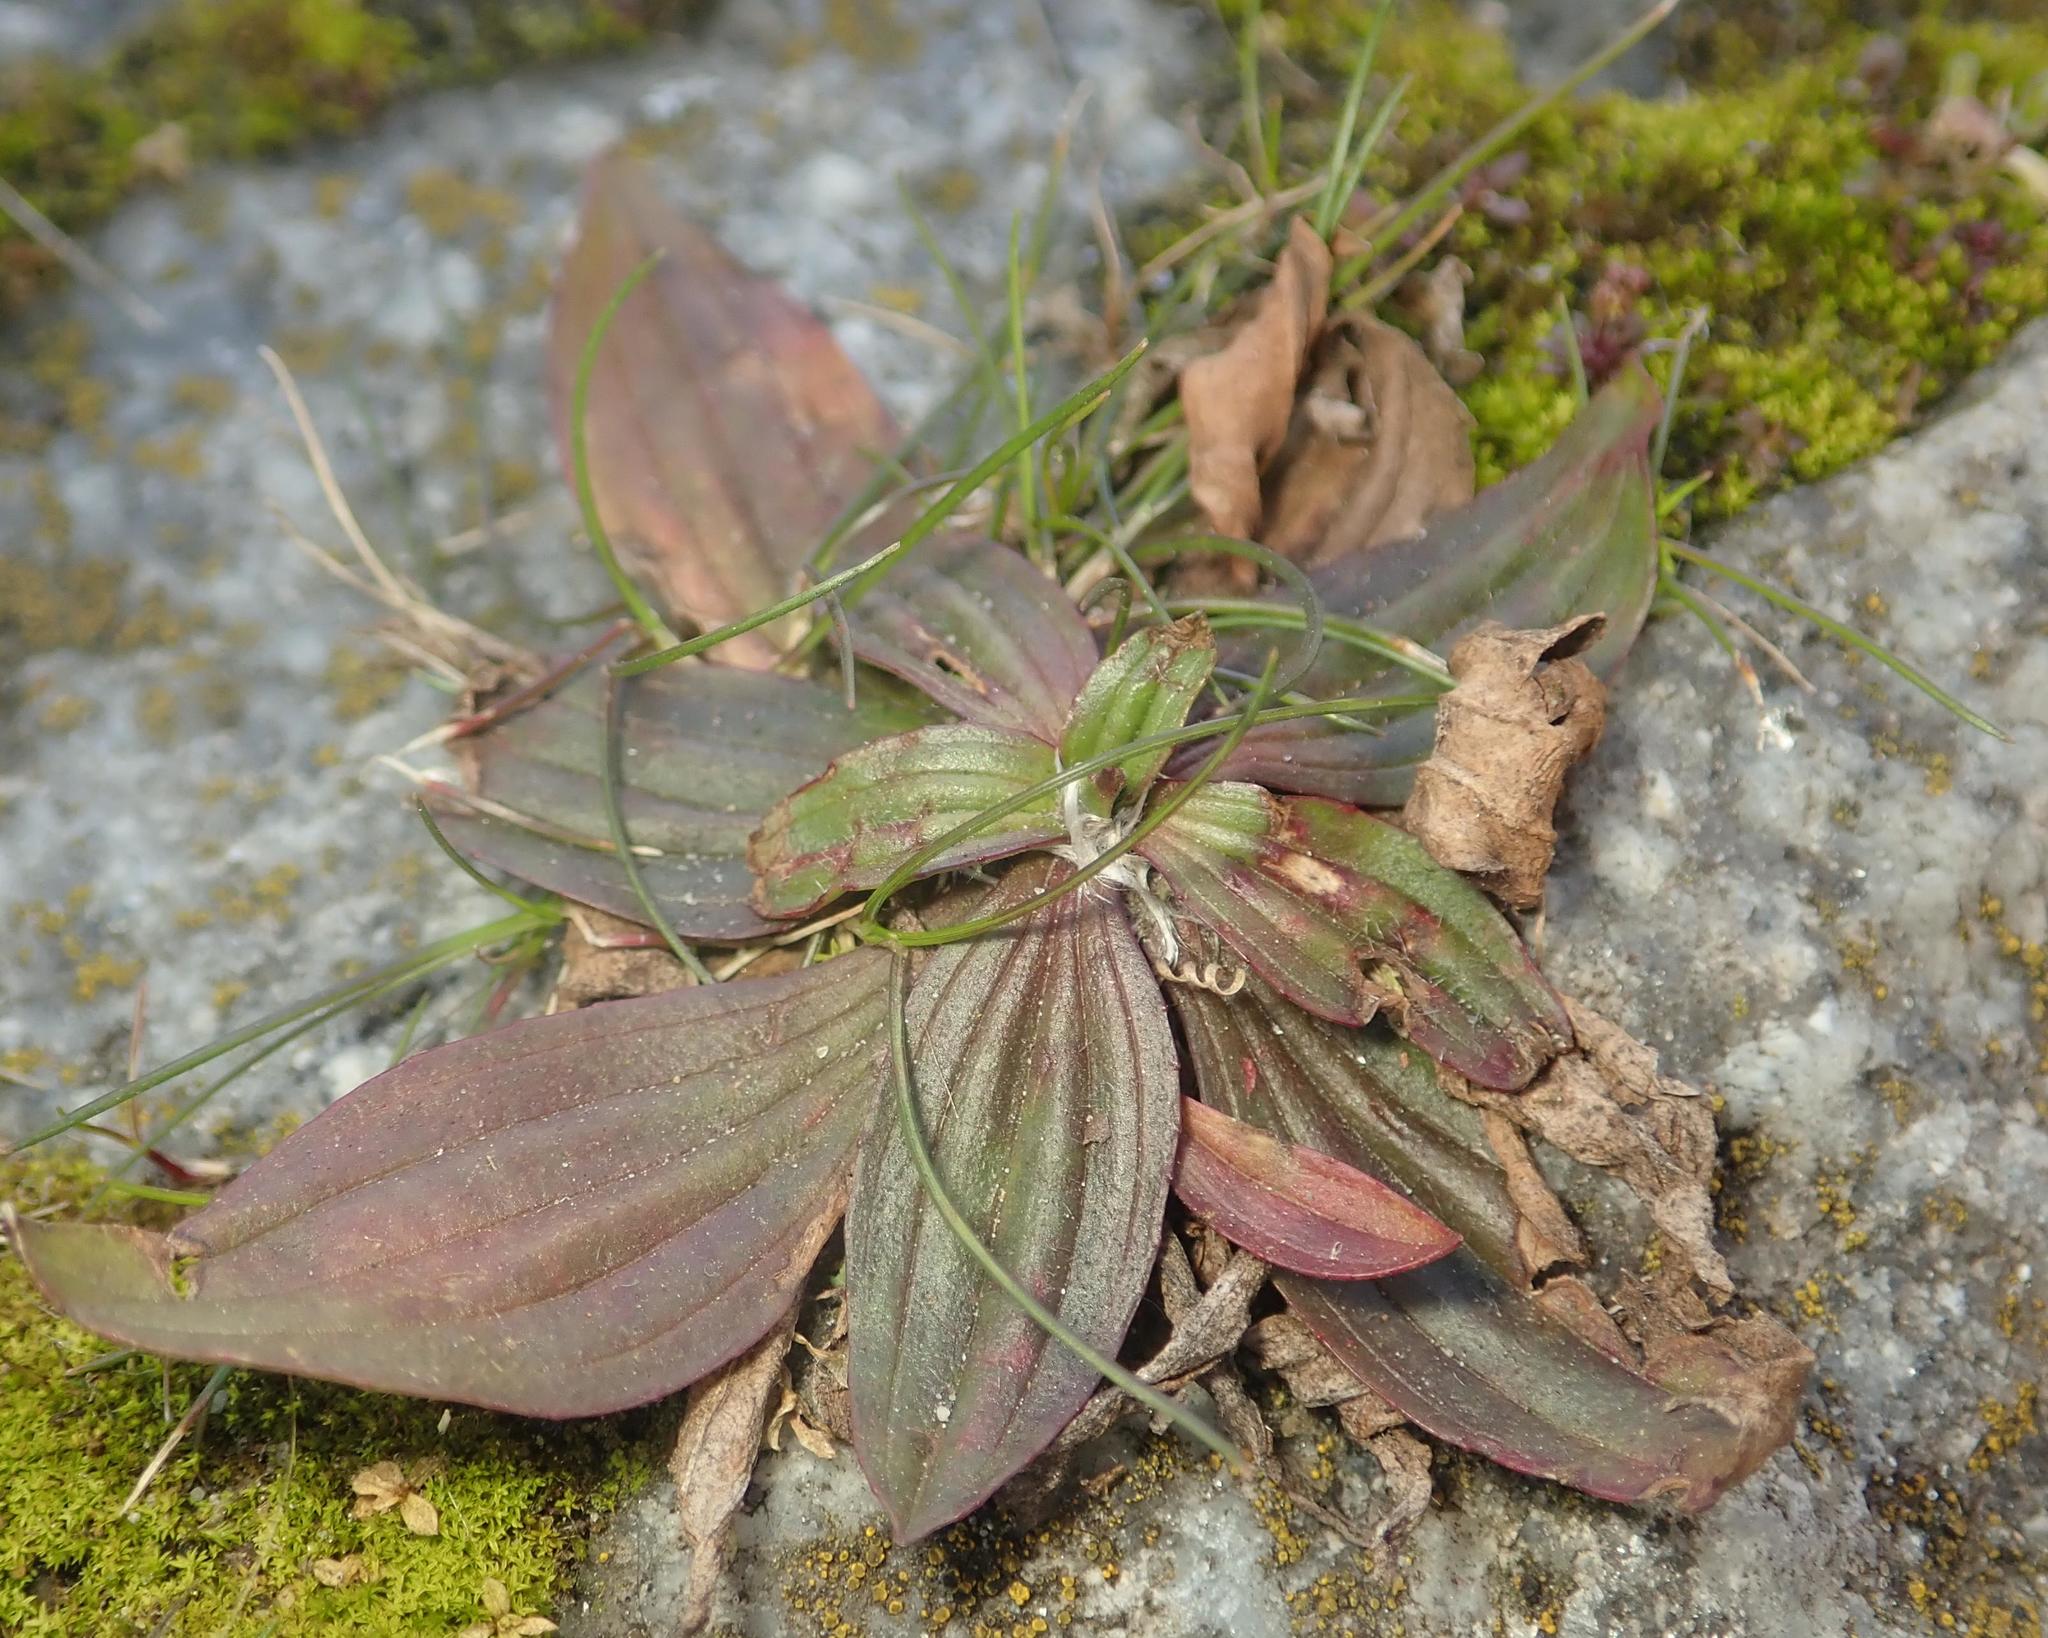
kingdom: Plantae
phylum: Tracheophyta
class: Magnoliopsida
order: Lamiales
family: Plantaginaceae
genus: Plantago
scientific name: Plantago media
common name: Hoary plantain
